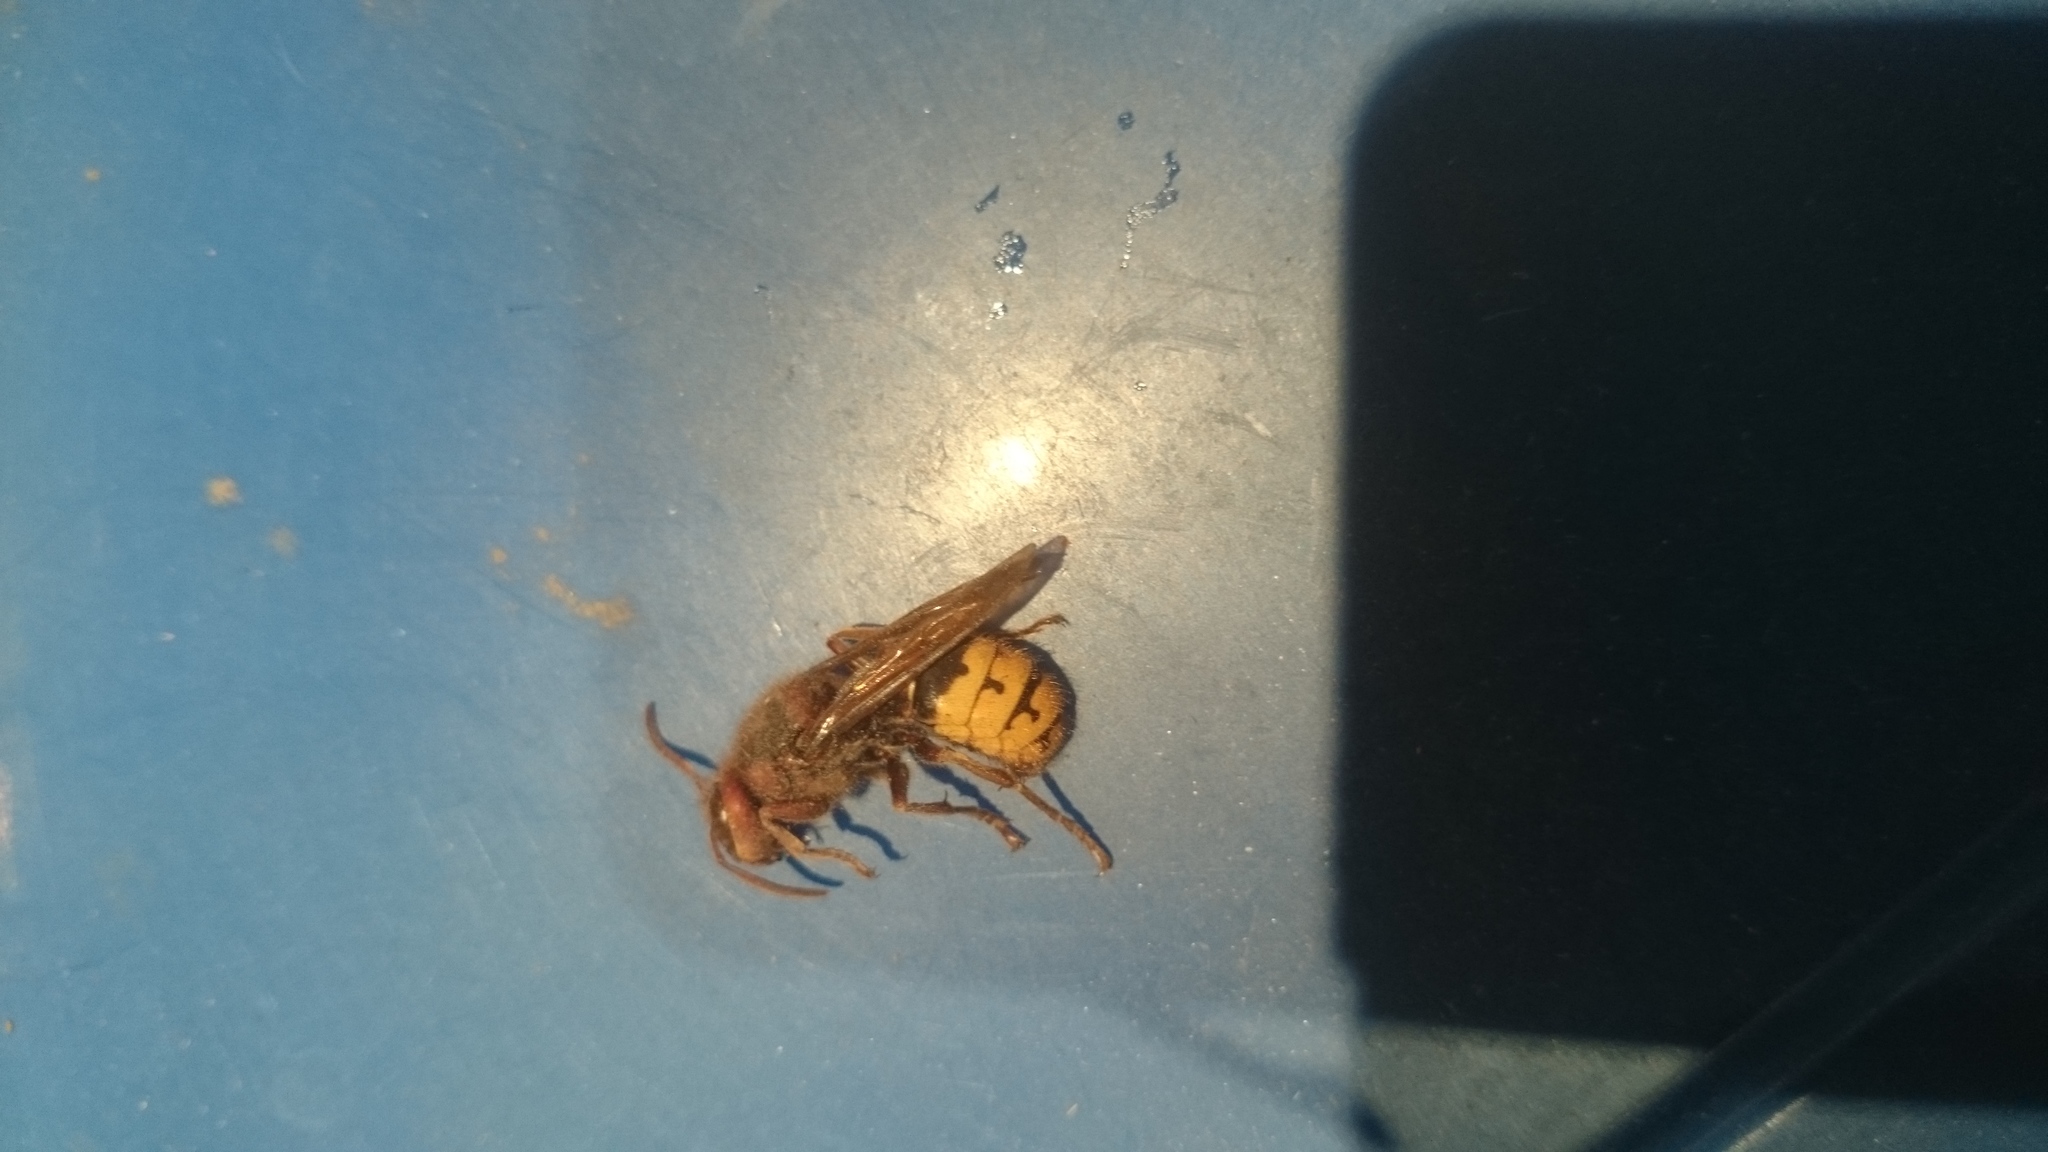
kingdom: Animalia
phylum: Arthropoda
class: Insecta
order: Hymenoptera
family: Vespidae
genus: Vespa
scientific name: Vespa crabro
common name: Hornet
